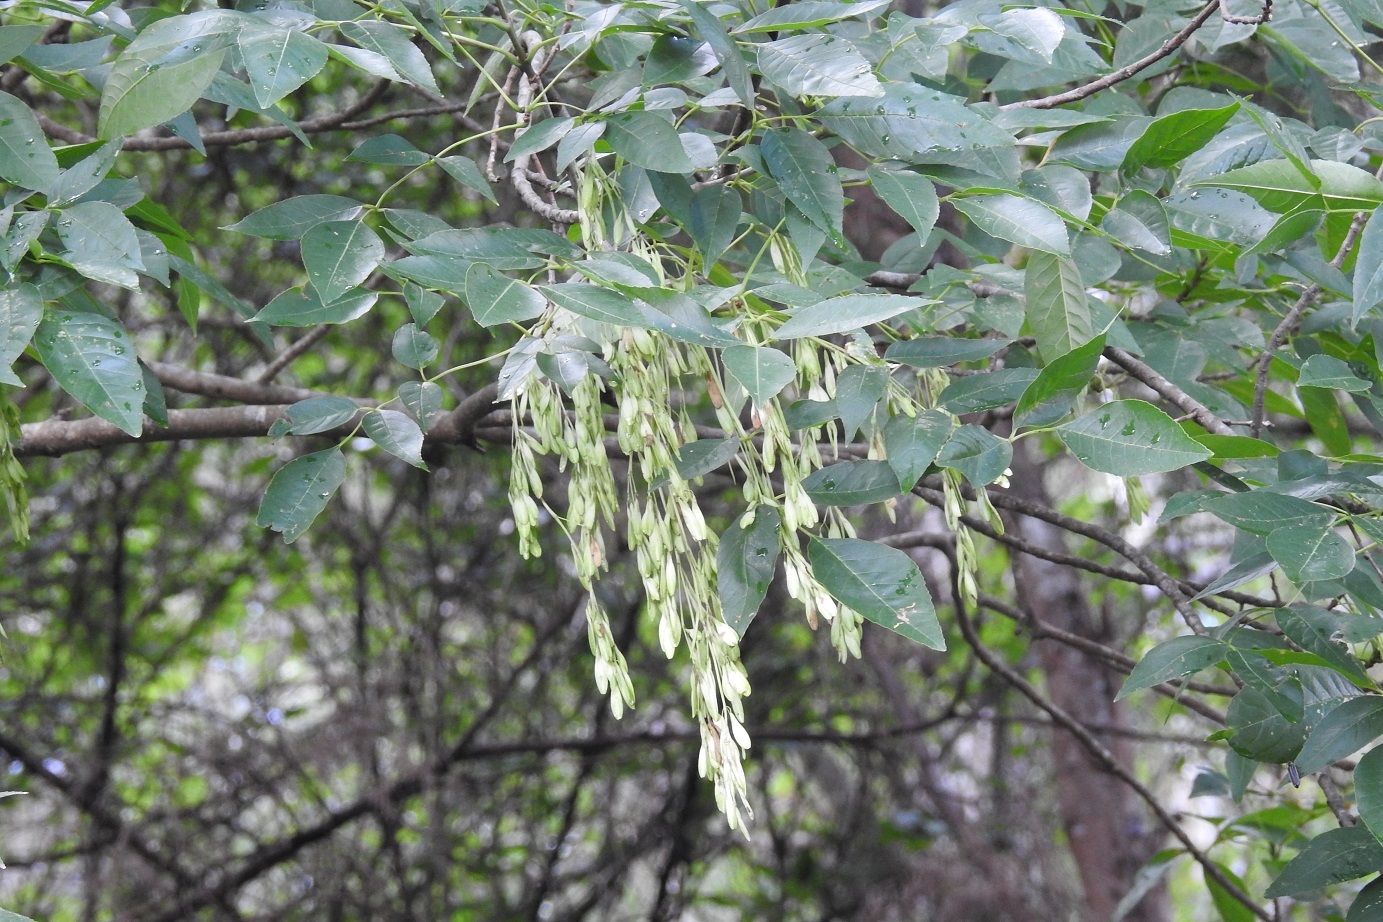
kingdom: Plantae
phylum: Tracheophyta
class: Magnoliopsida
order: Lamiales
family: Oleaceae
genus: Fraxinus
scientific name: Fraxinus uhdei
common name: Shamel ash
